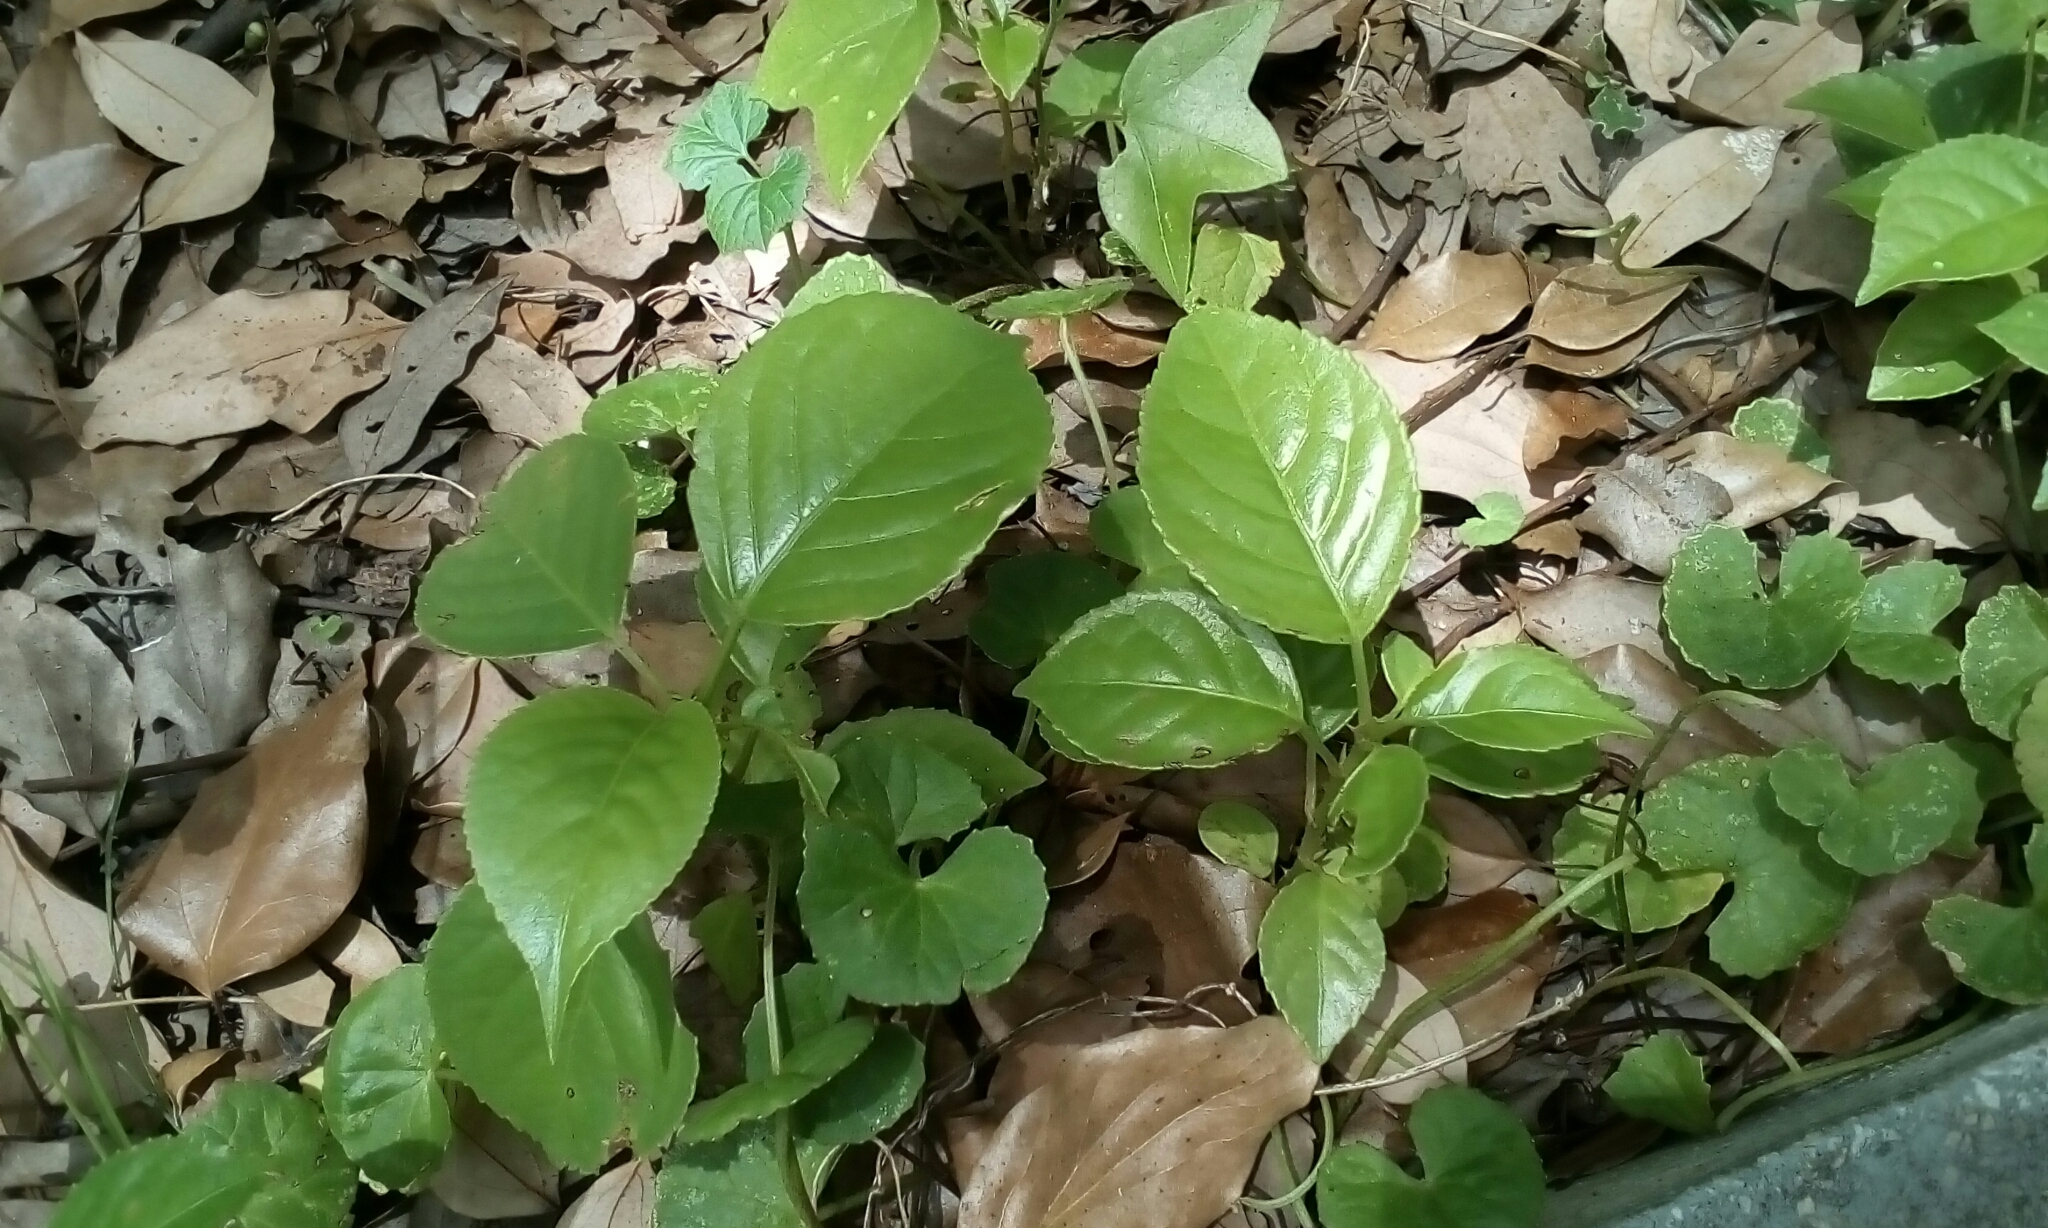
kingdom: Plantae
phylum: Tracheophyta
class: Magnoliopsida
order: Malpighiales
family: Phyllanthaceae
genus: Bischofia
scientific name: Bischofia javanica
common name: Javanese bishopwood
